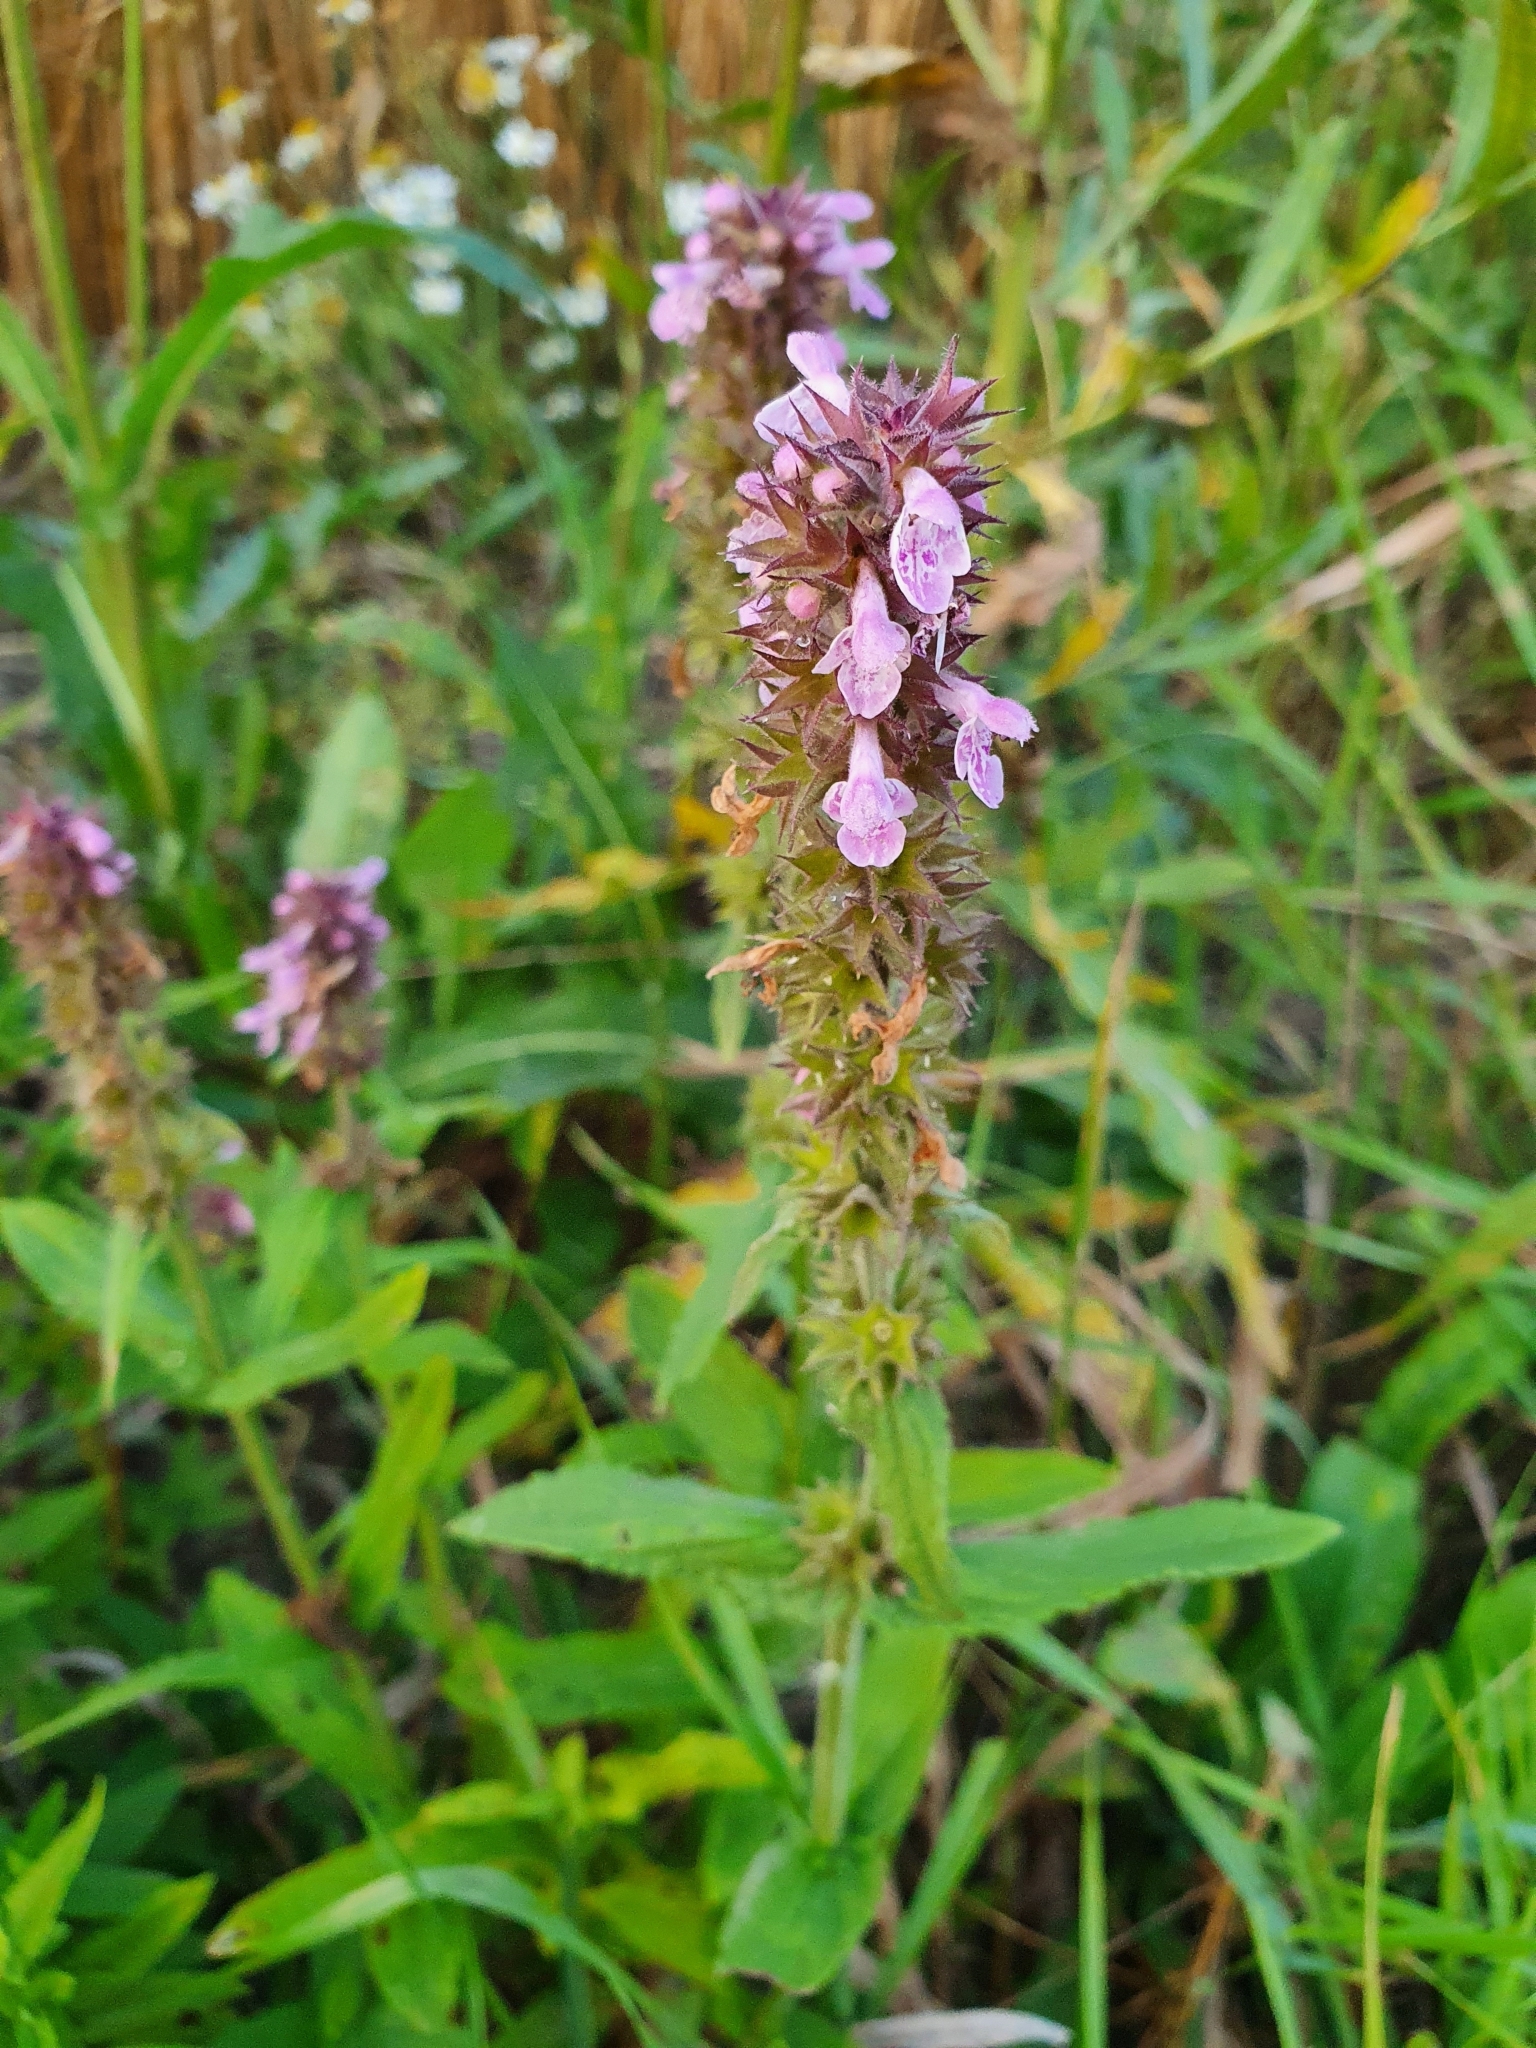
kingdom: Plantae
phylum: Tracheophyta
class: Magnoliopsida
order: Lamiales
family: Lamiaceae
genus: Stachys
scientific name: Stachys palustris
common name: Marsh woundwort
